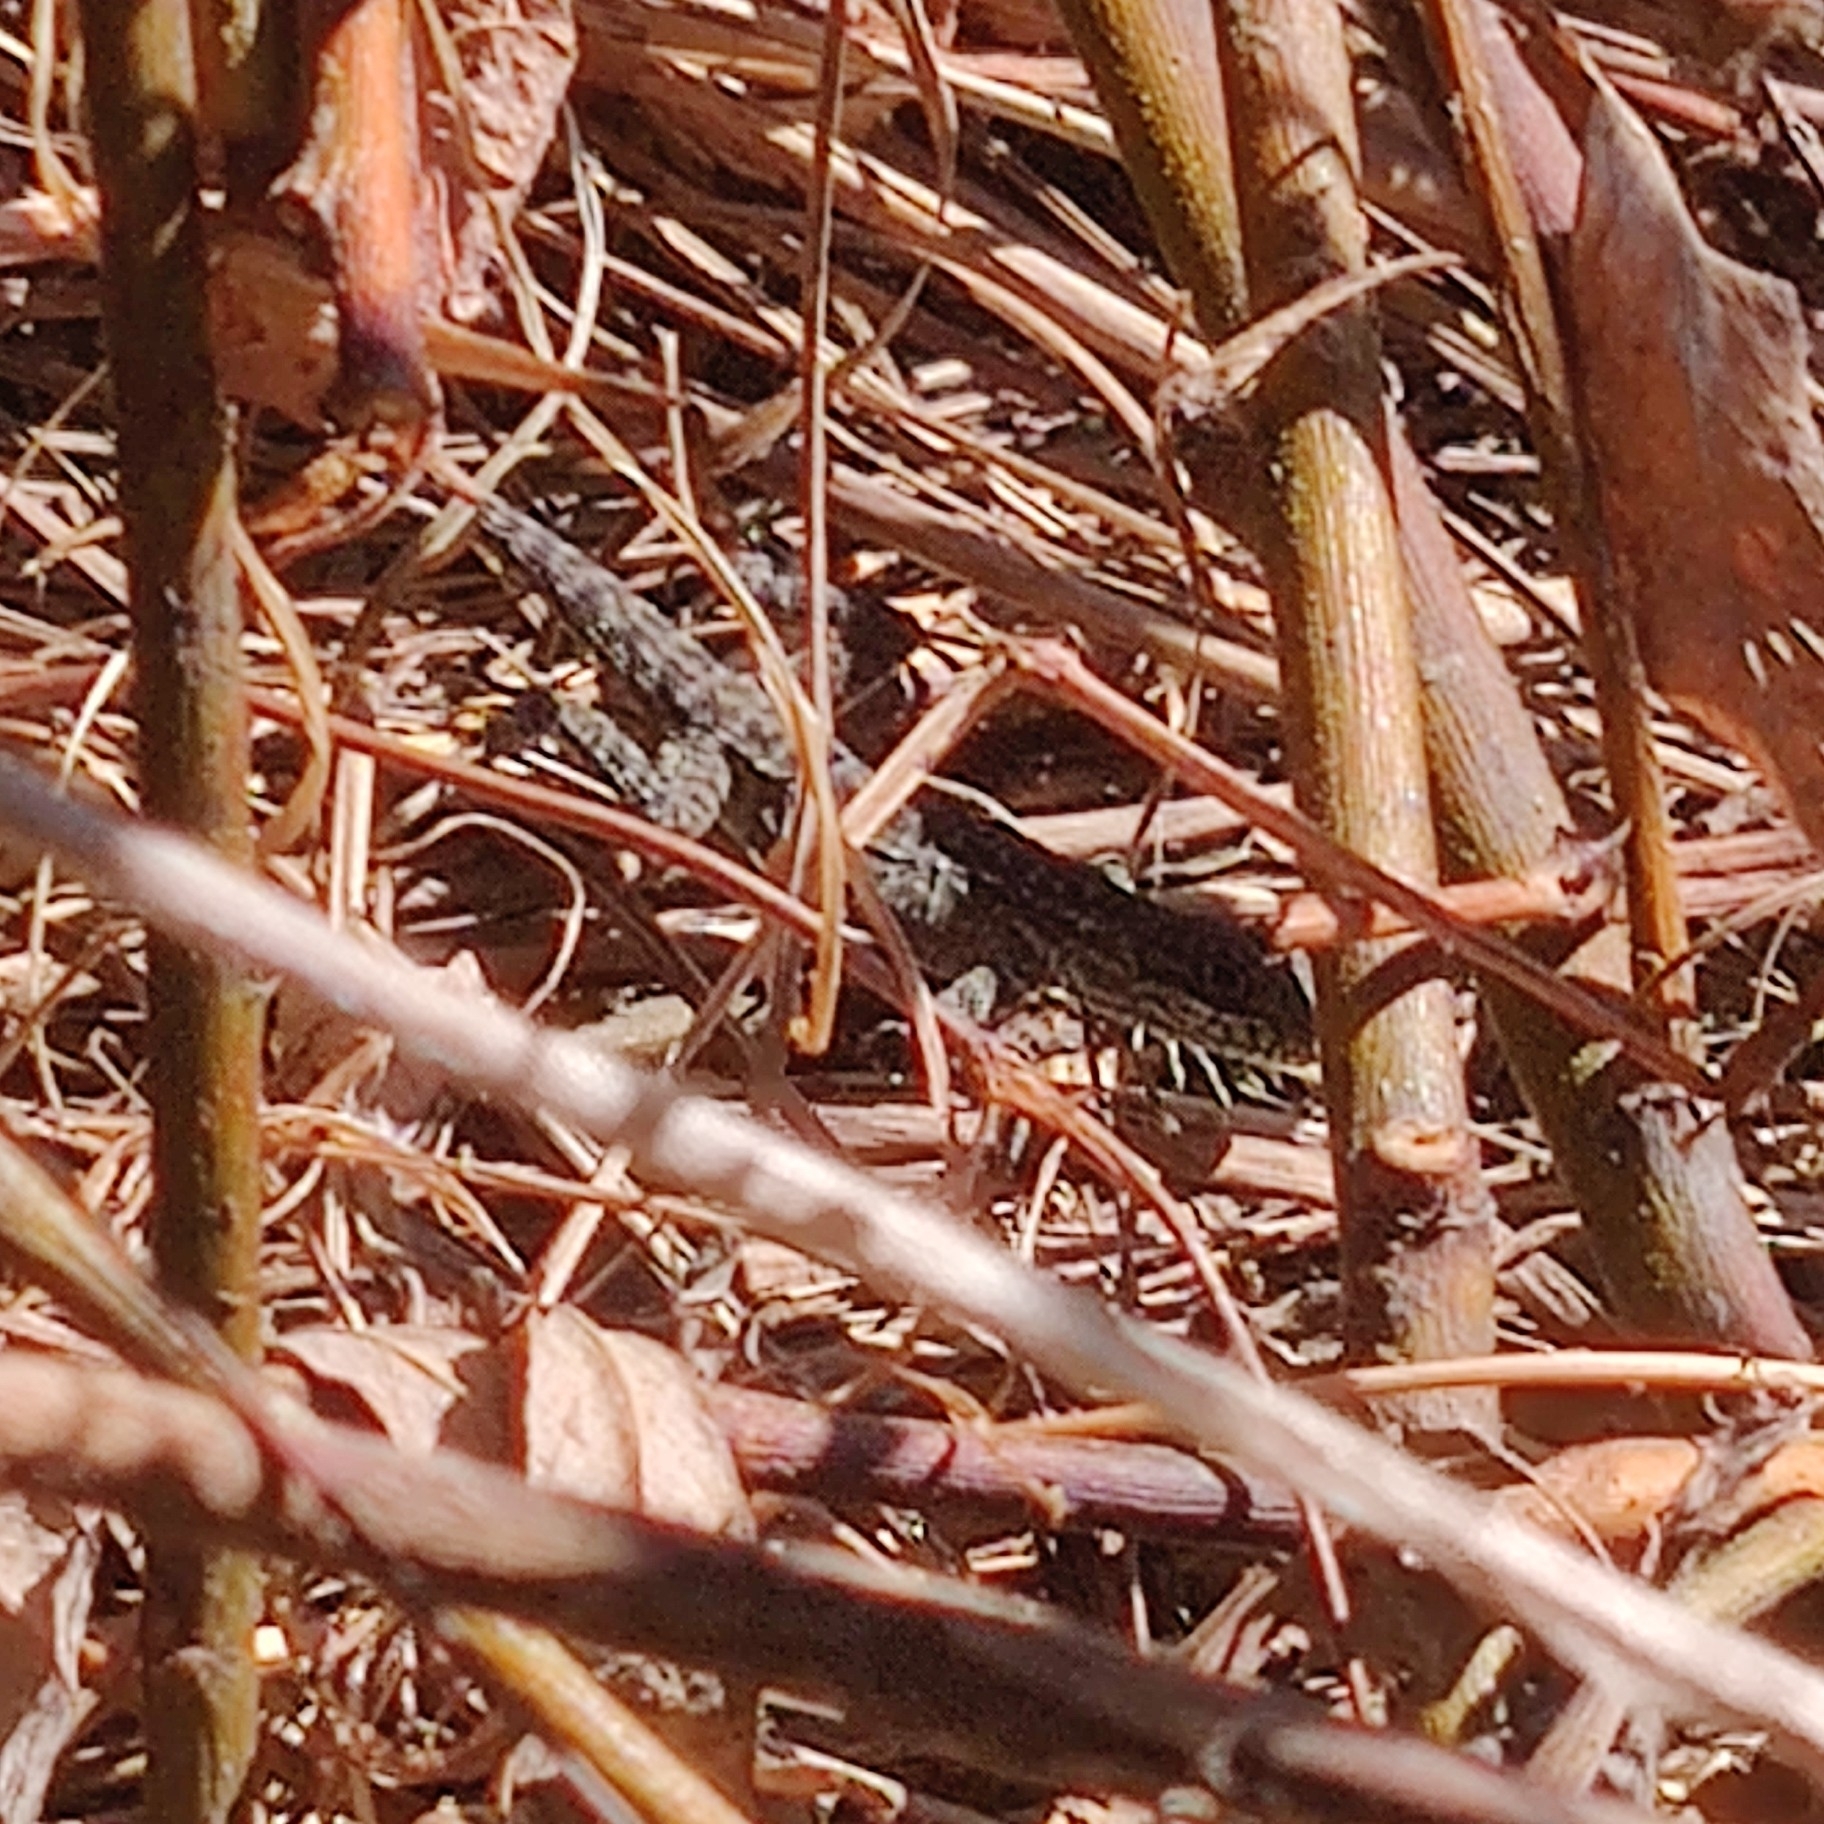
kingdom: Animalia
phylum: Chordata
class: Squamata
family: Agamidae
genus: Laudakia
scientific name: Laudakia tuberculata
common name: Kashmir rock agama
